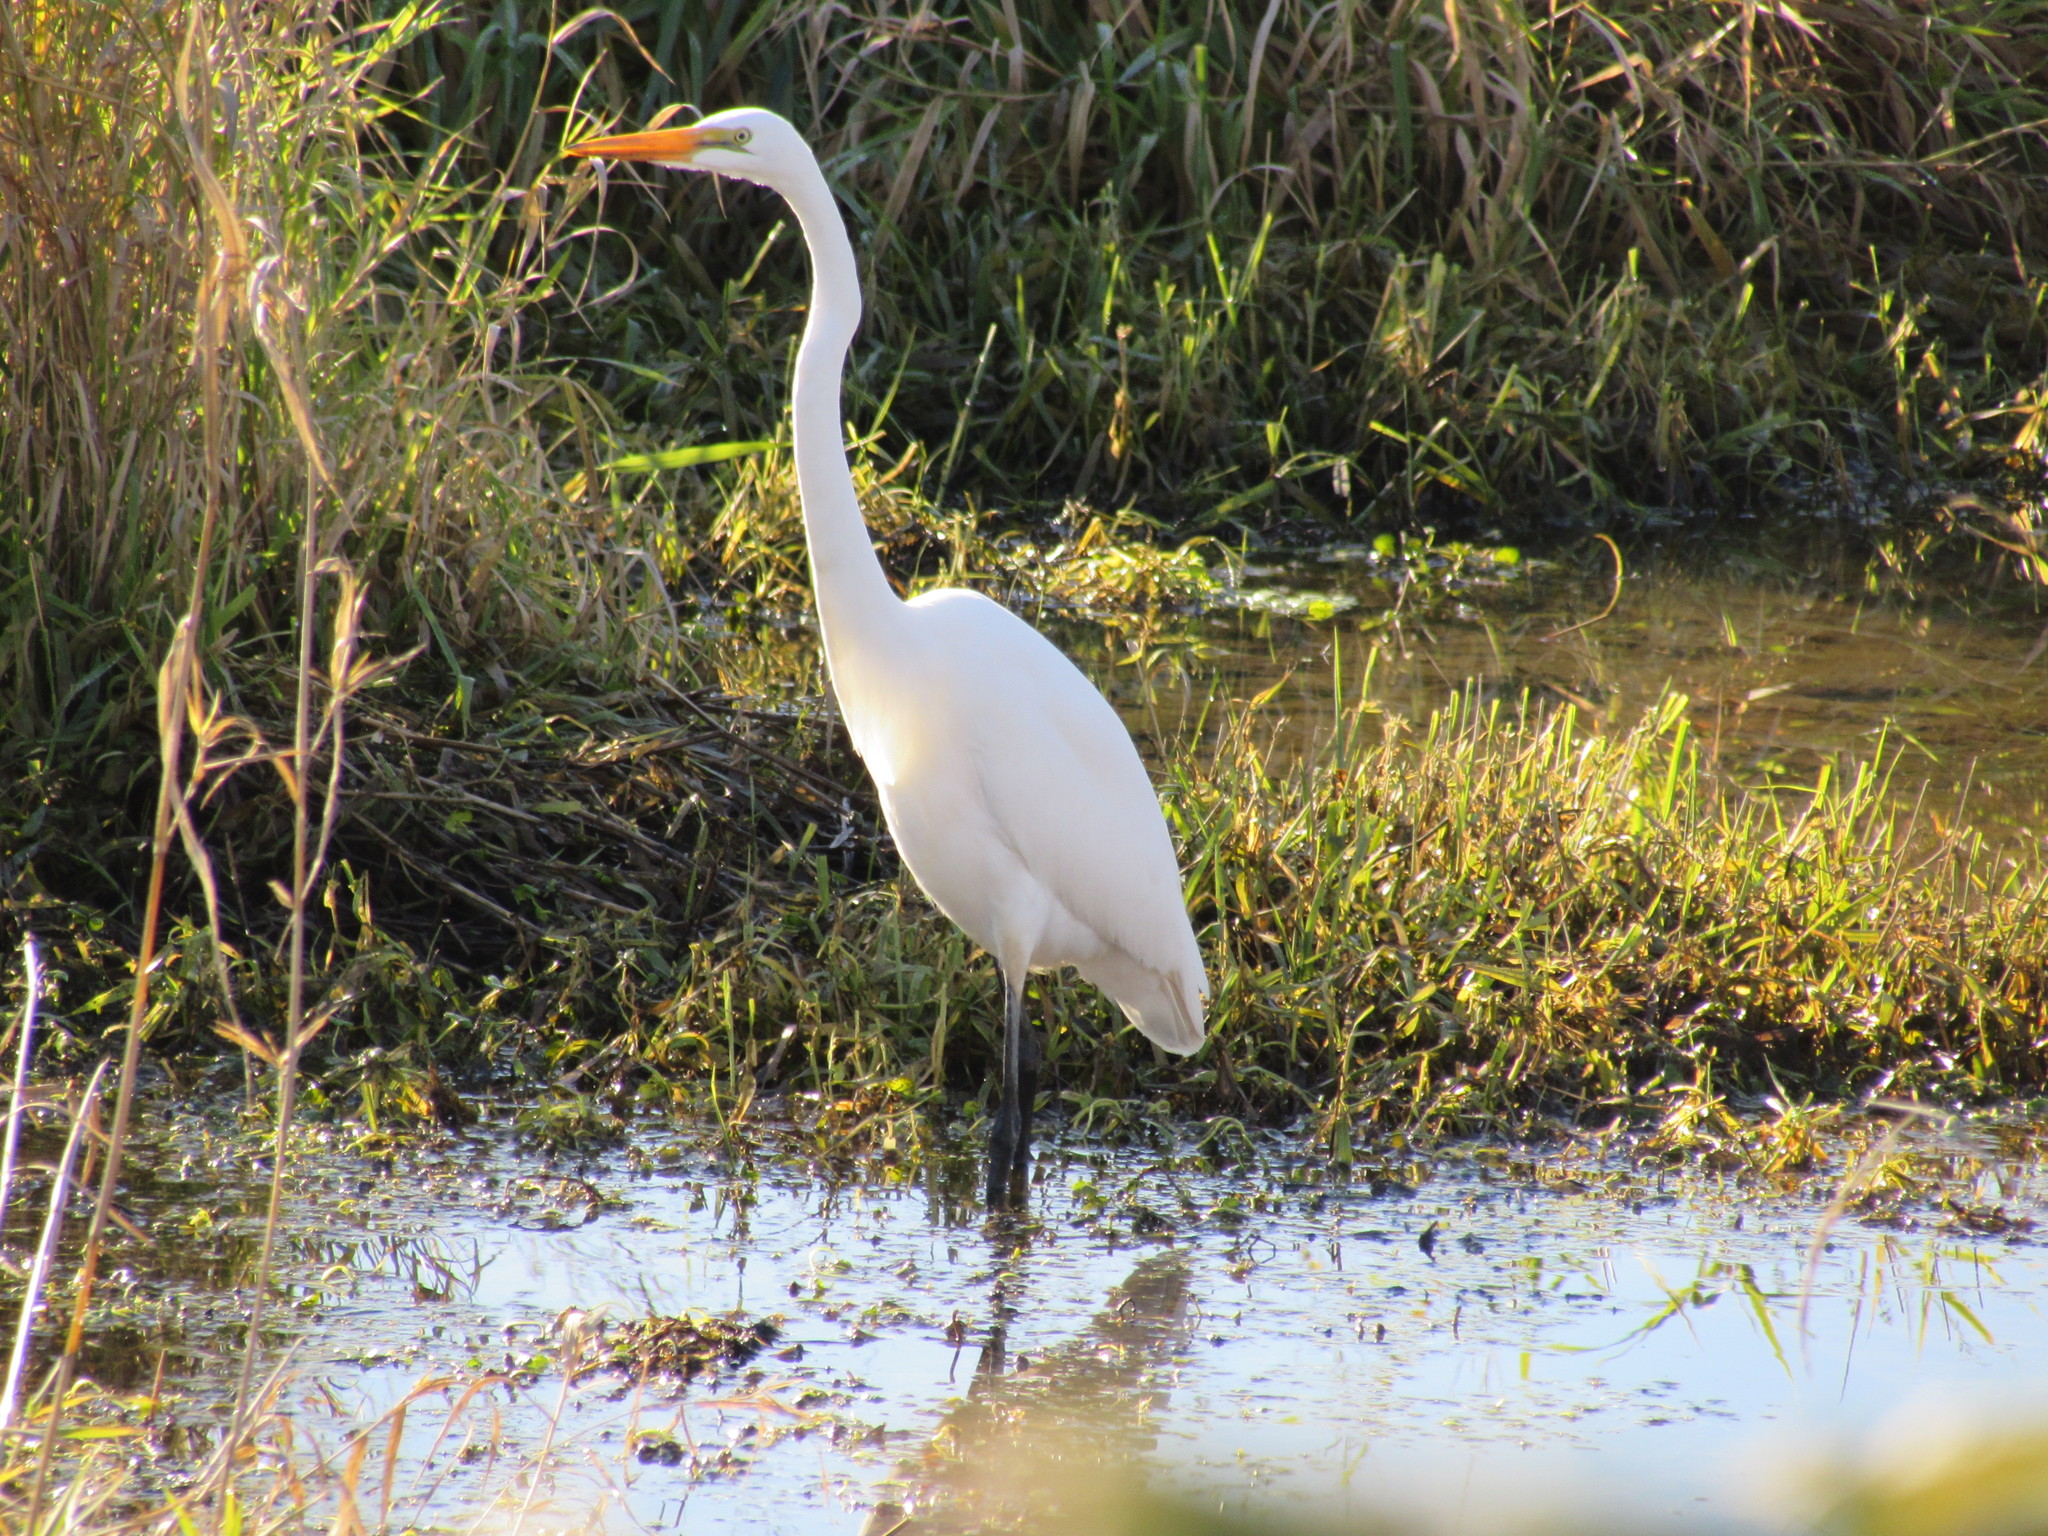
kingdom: Animalia
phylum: Chordata
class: Aves
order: Pelecaniformes
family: Ardeidae
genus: Ardea
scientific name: Ardea alba
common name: Great egret
